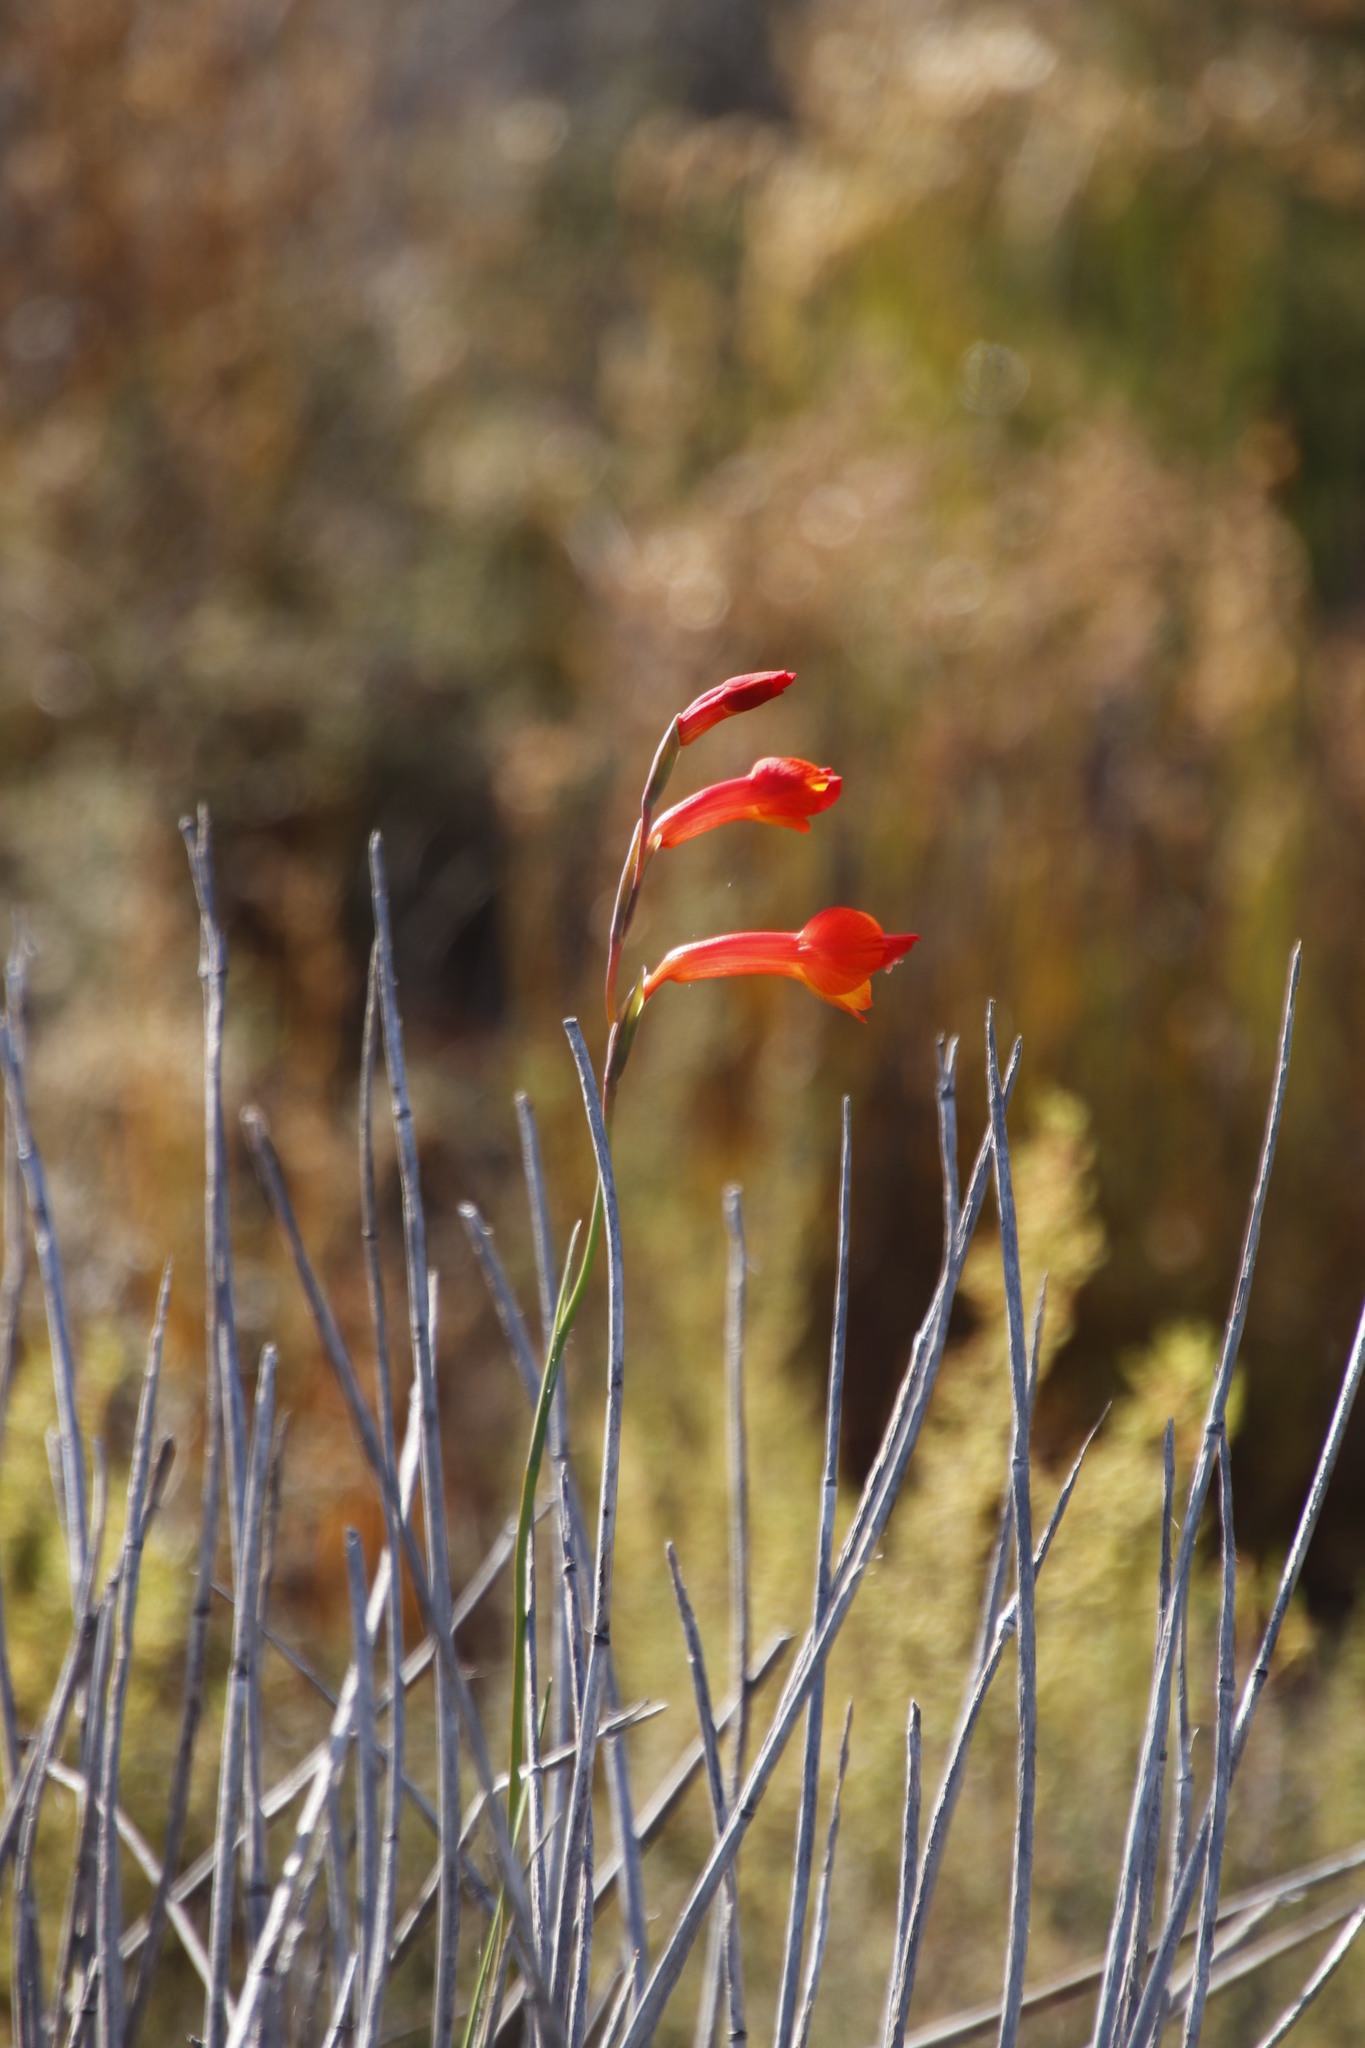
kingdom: Plantae
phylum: Tracheophyta
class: Liliopsida
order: Asparagales
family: Iridaceae
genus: Gladiolus
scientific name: Gladiolus merianellus
